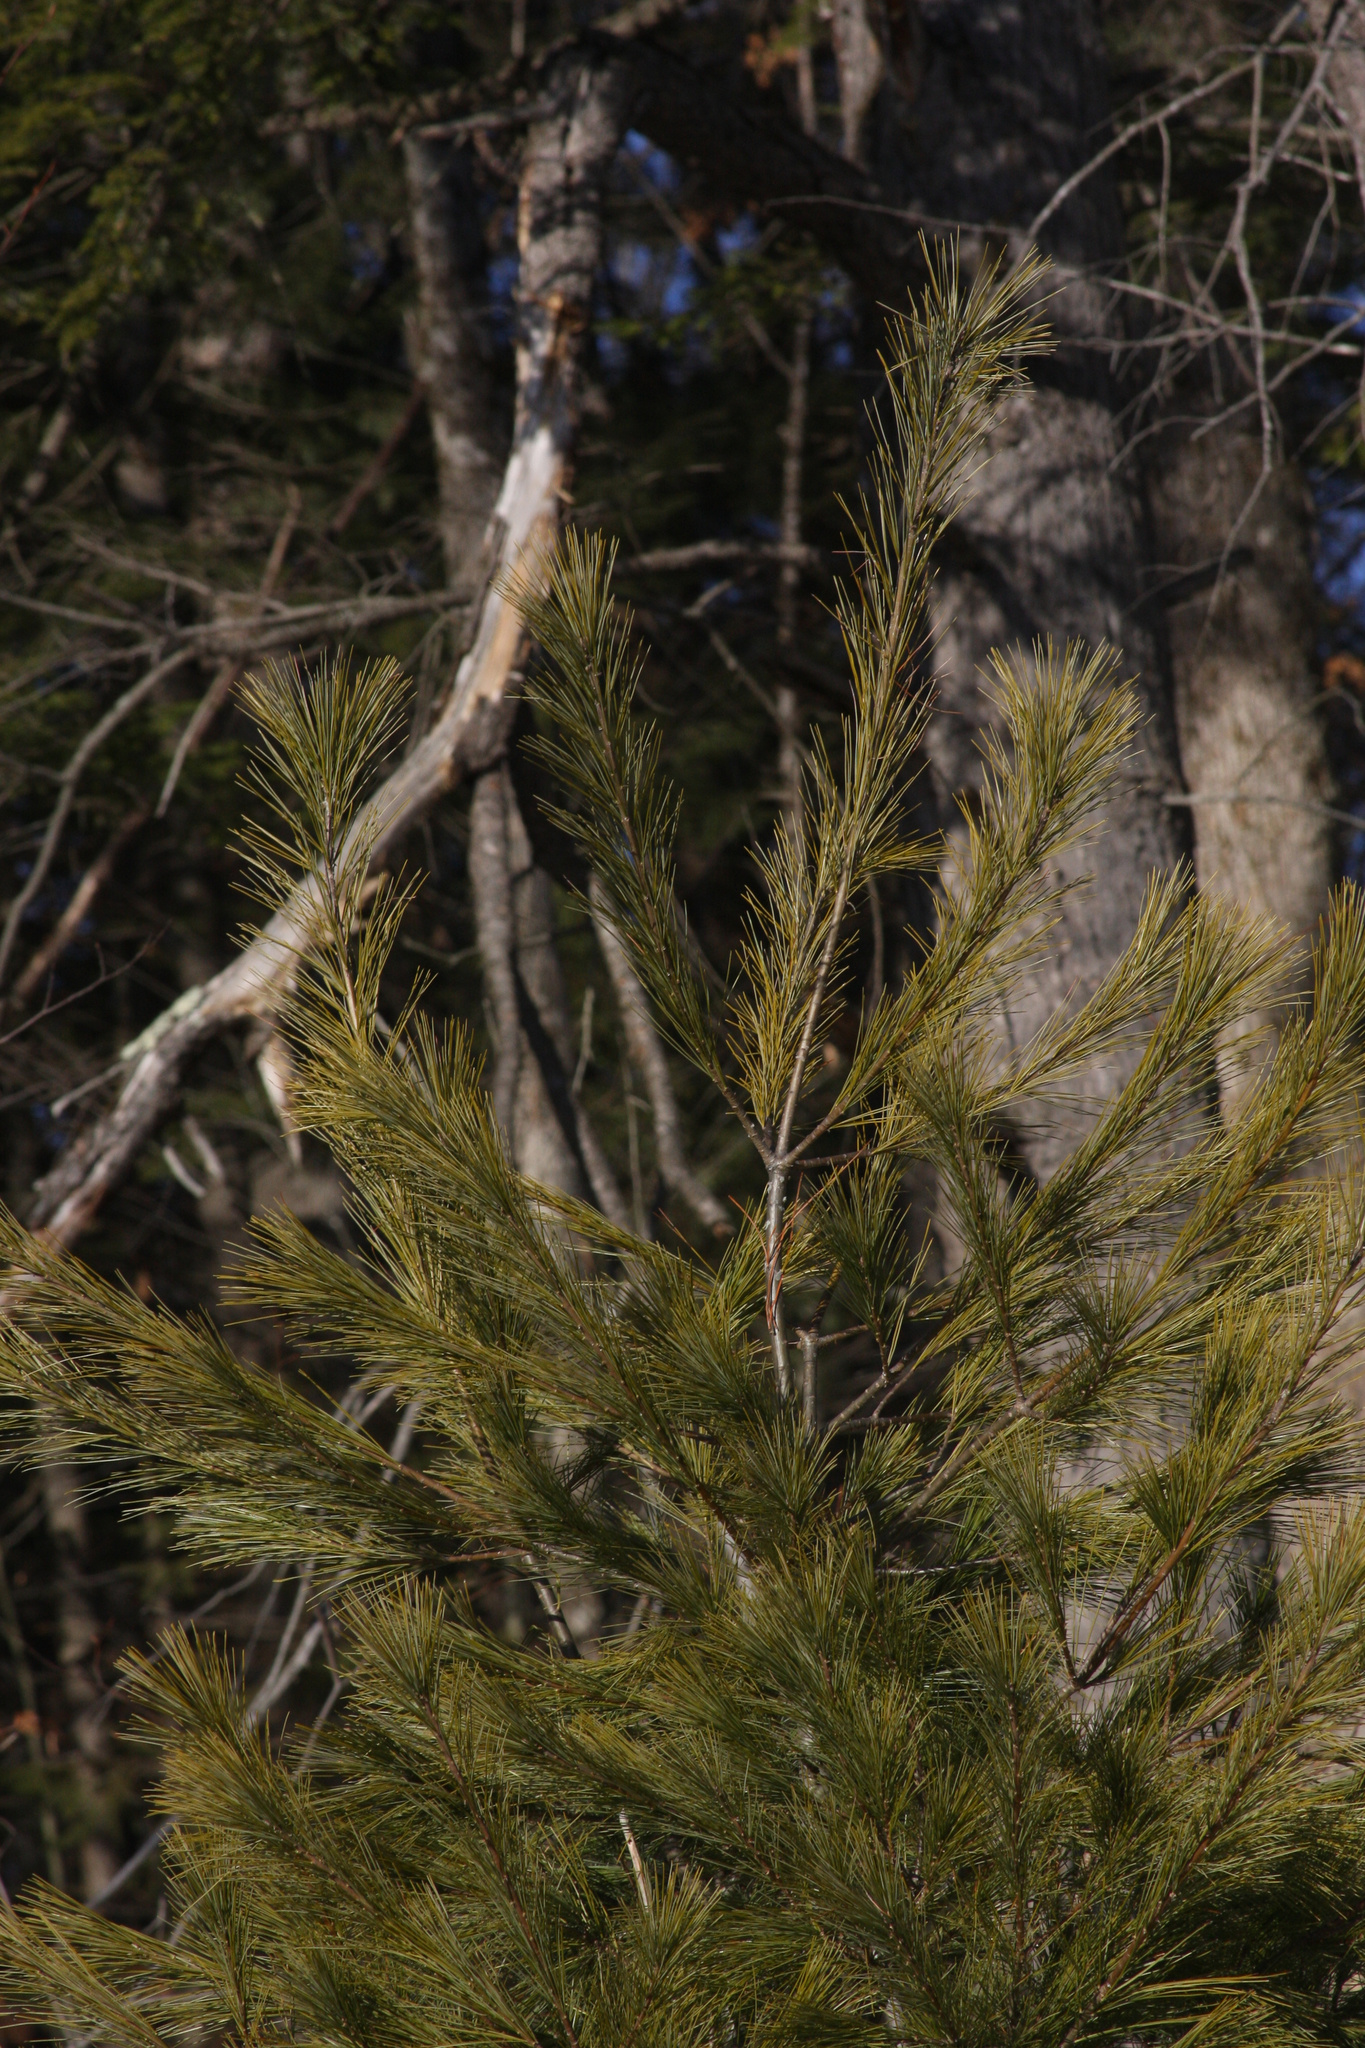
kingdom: Plantae
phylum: Tracheophyta
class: Pinopsida
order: Pinales
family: Pinaceae
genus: Pinus
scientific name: Pinus strobus
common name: Weymouth pine
